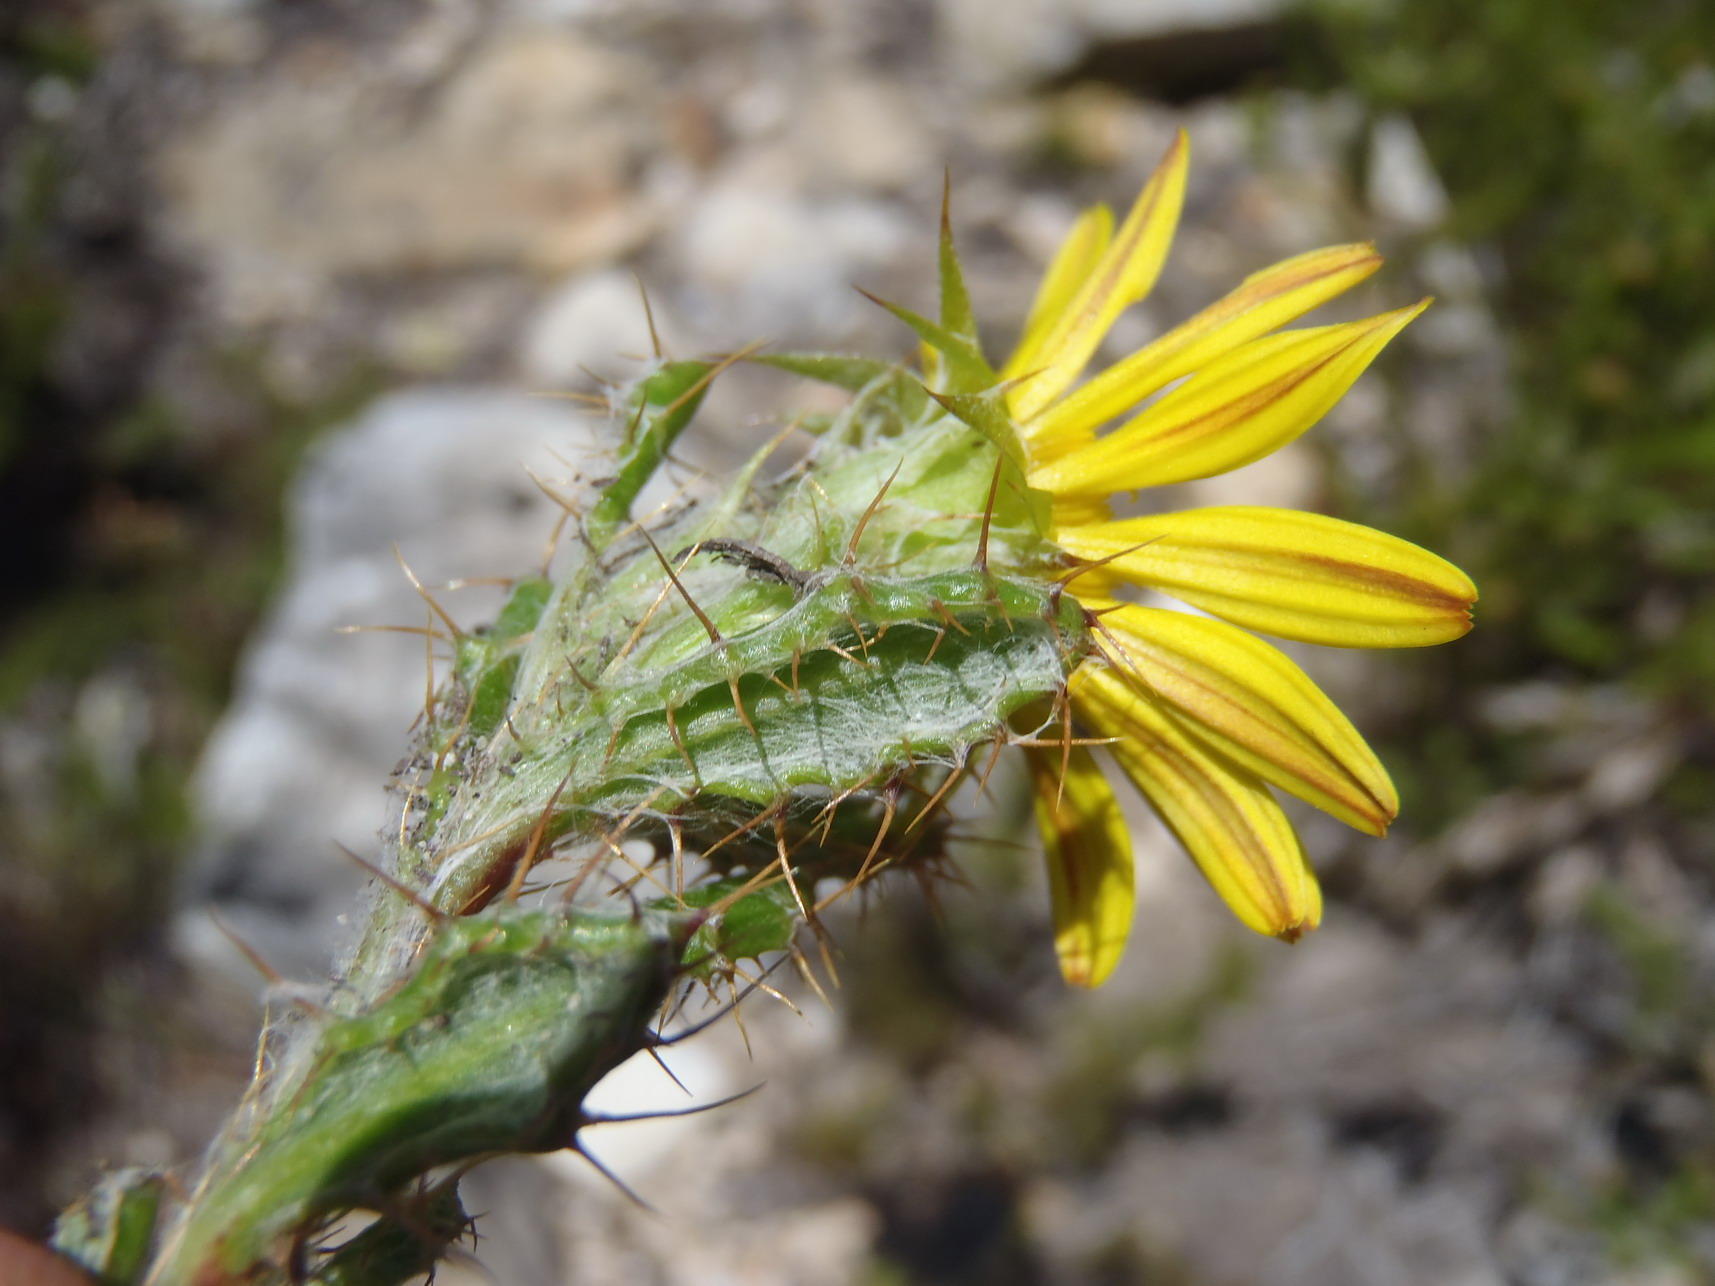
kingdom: Plantae
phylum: Tracheophyta
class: Magnoliopsida
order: Asterales
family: Asteraceae
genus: Cullumia
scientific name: Cullumia aculeata
